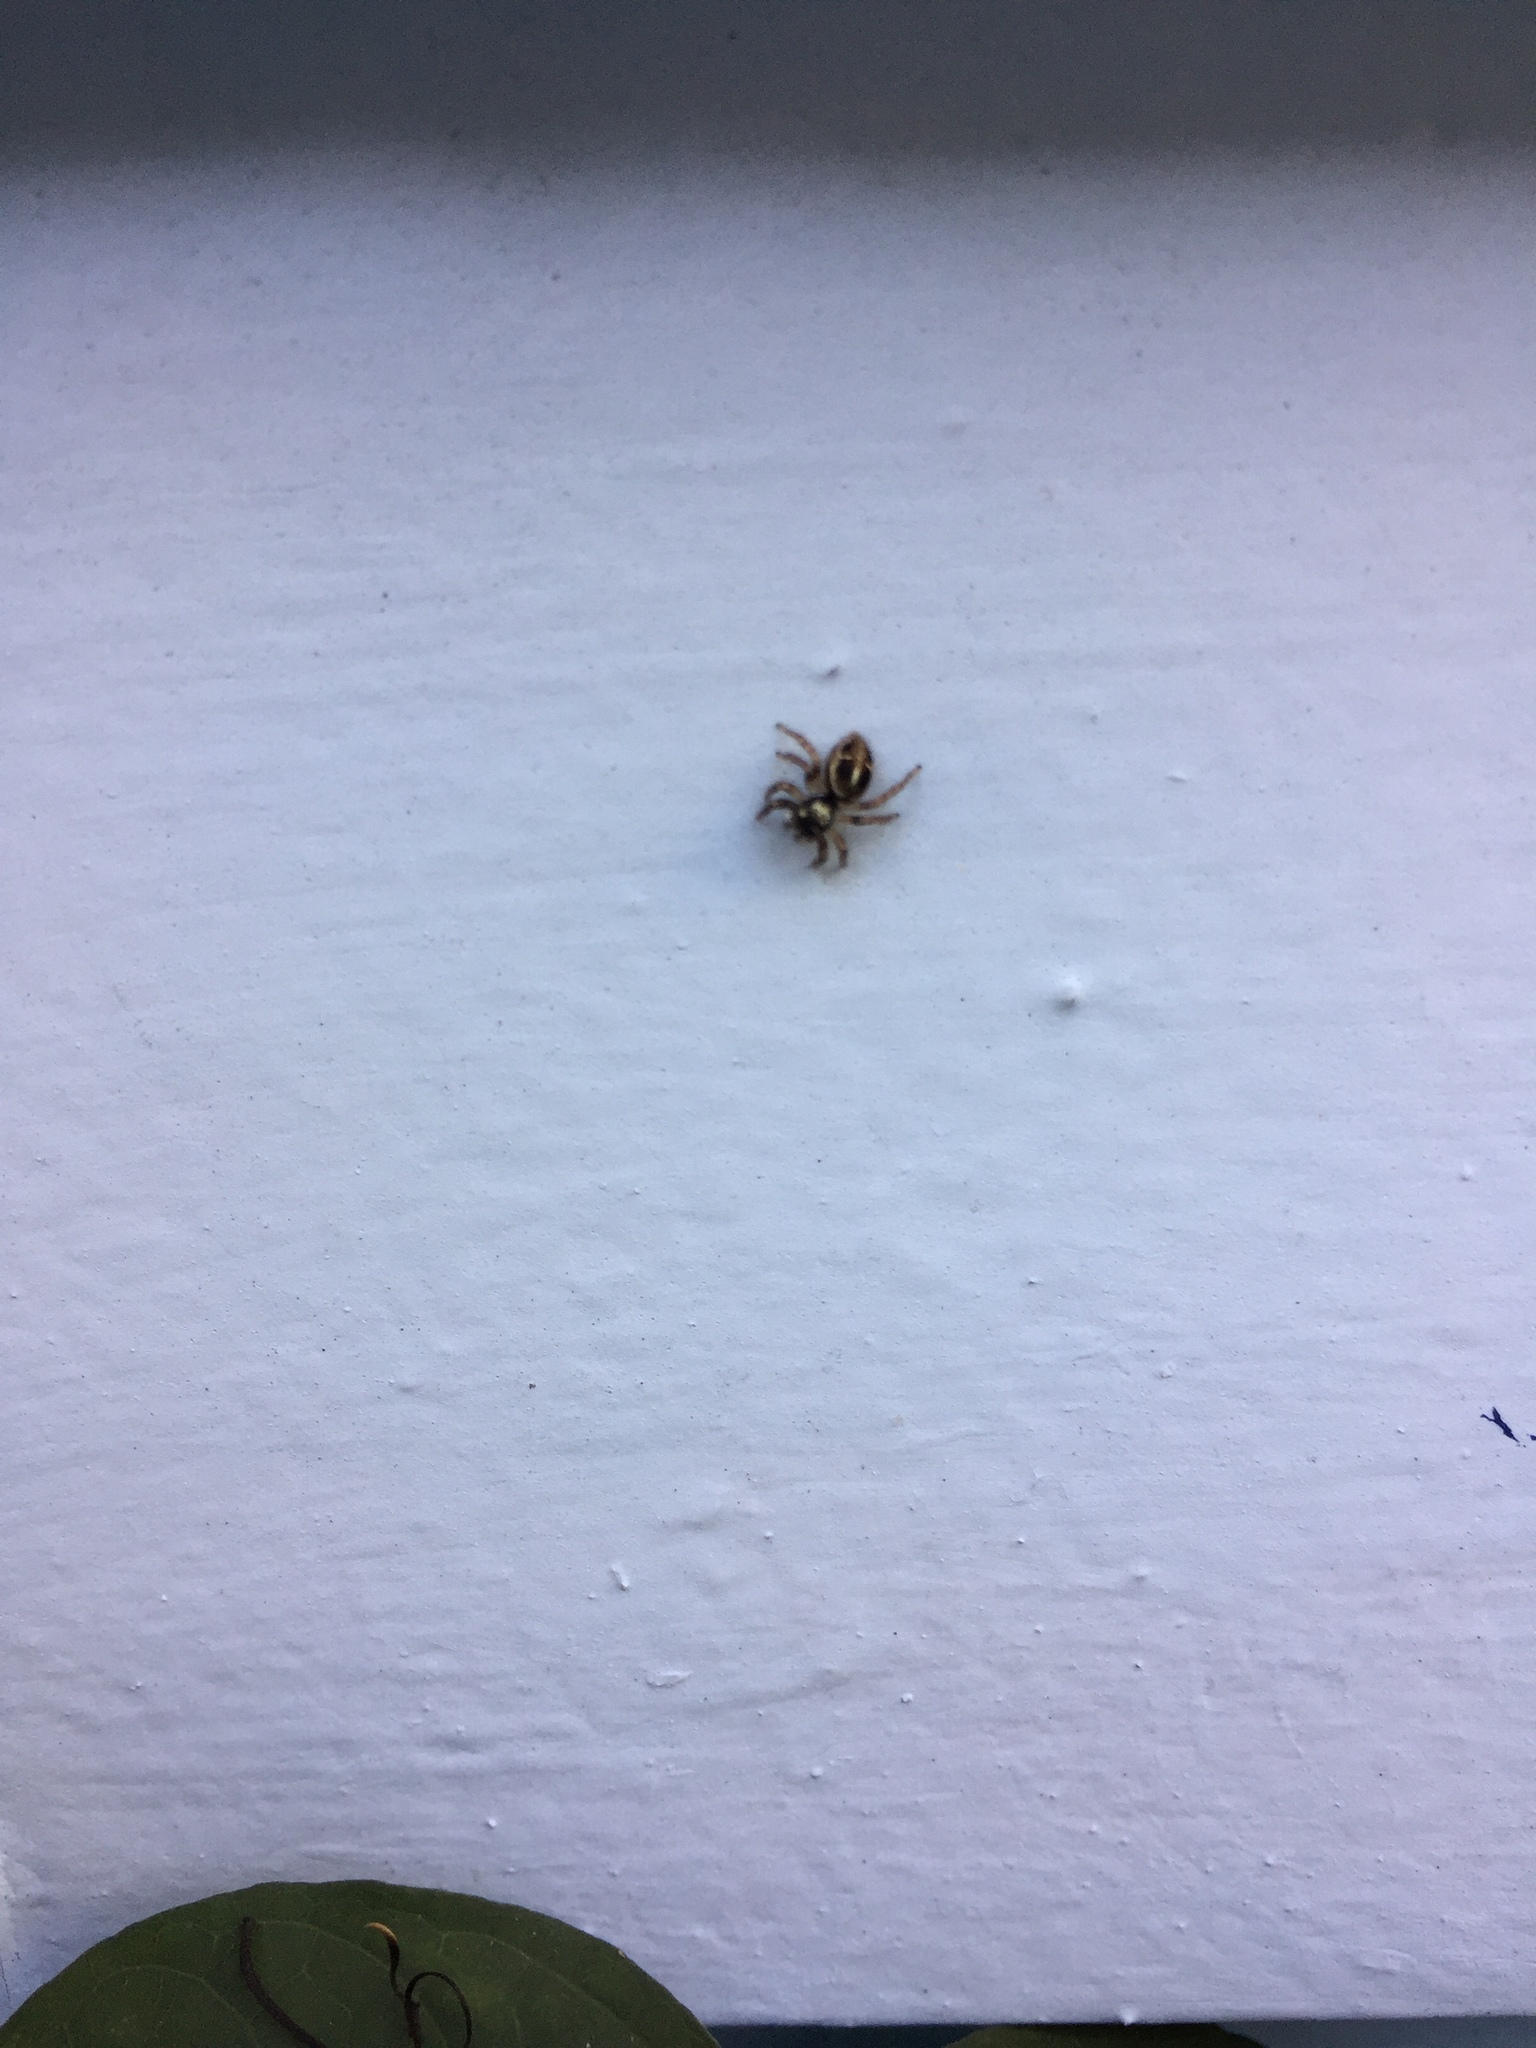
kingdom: Animalia
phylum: Arthropoda
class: Arachnida
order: Araneae
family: Salticidae
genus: Anasaitis
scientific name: Anasaitis canosa
